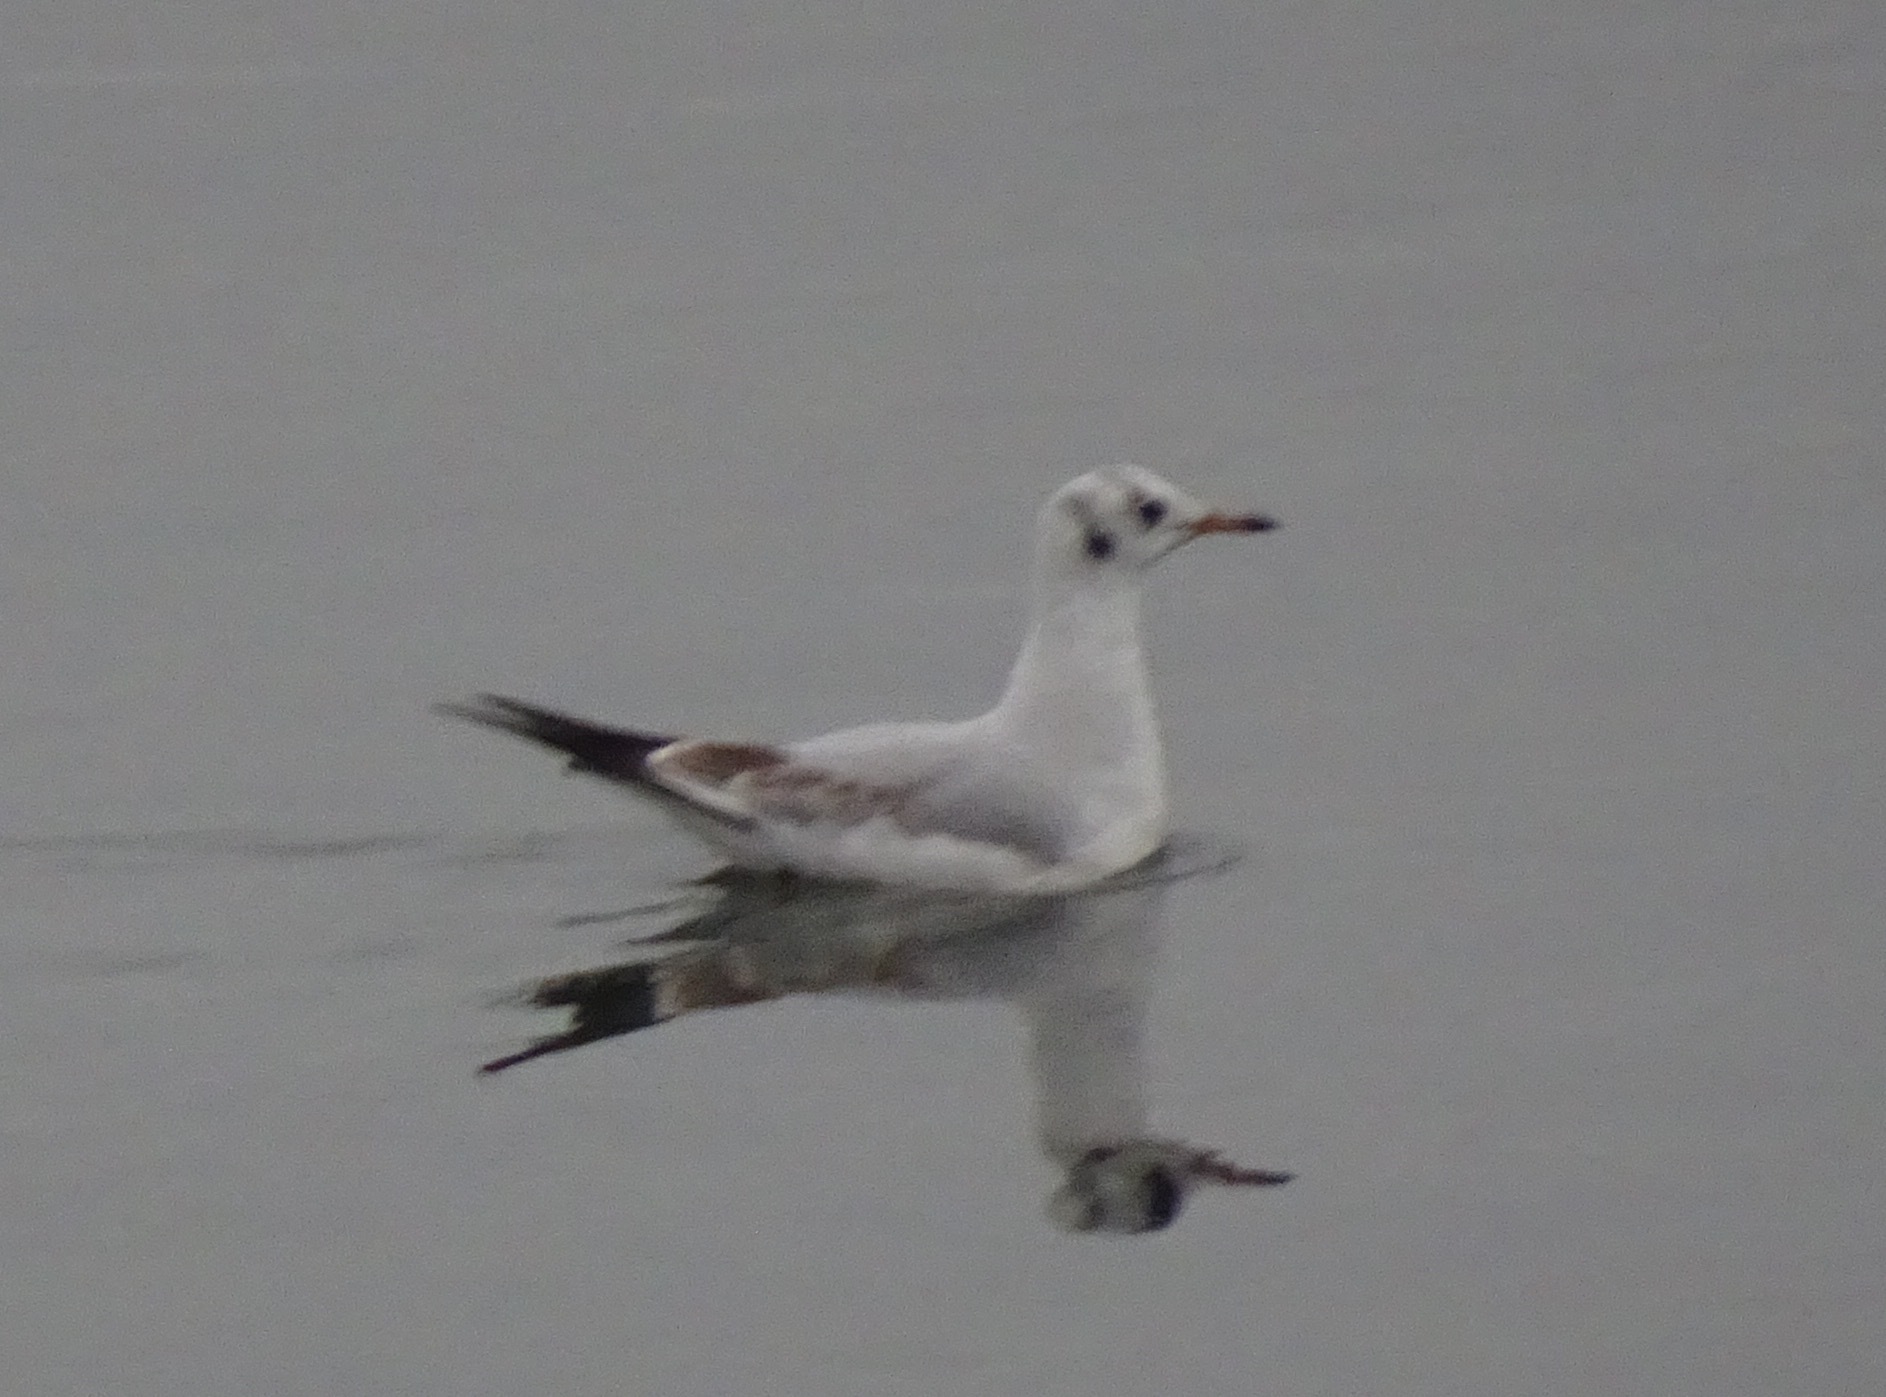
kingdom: Animalia
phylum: Chordata
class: Aves
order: Charadriiformes
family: Laridae
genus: Chroicocephalus
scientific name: Chroicocephalus ridibundus
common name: Black-headed gull
